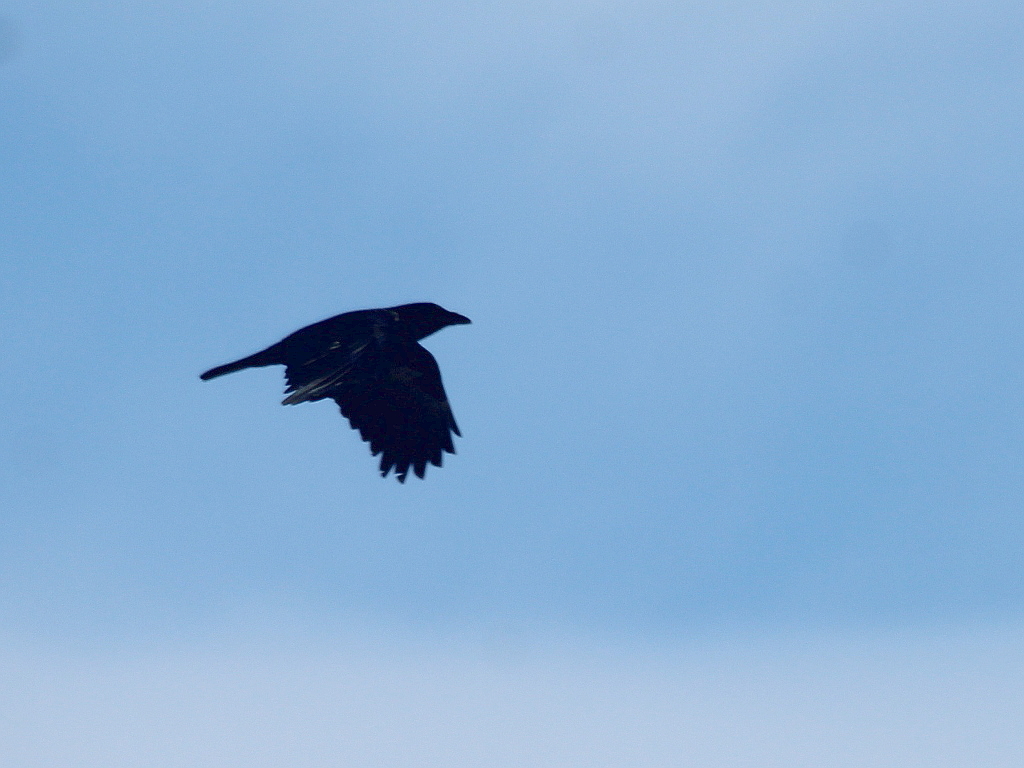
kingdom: Animalia
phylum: Chordata
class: Aves
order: Passeriformes
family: Corvidae
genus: Corvus
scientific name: Corvus corone
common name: Carrion crow
